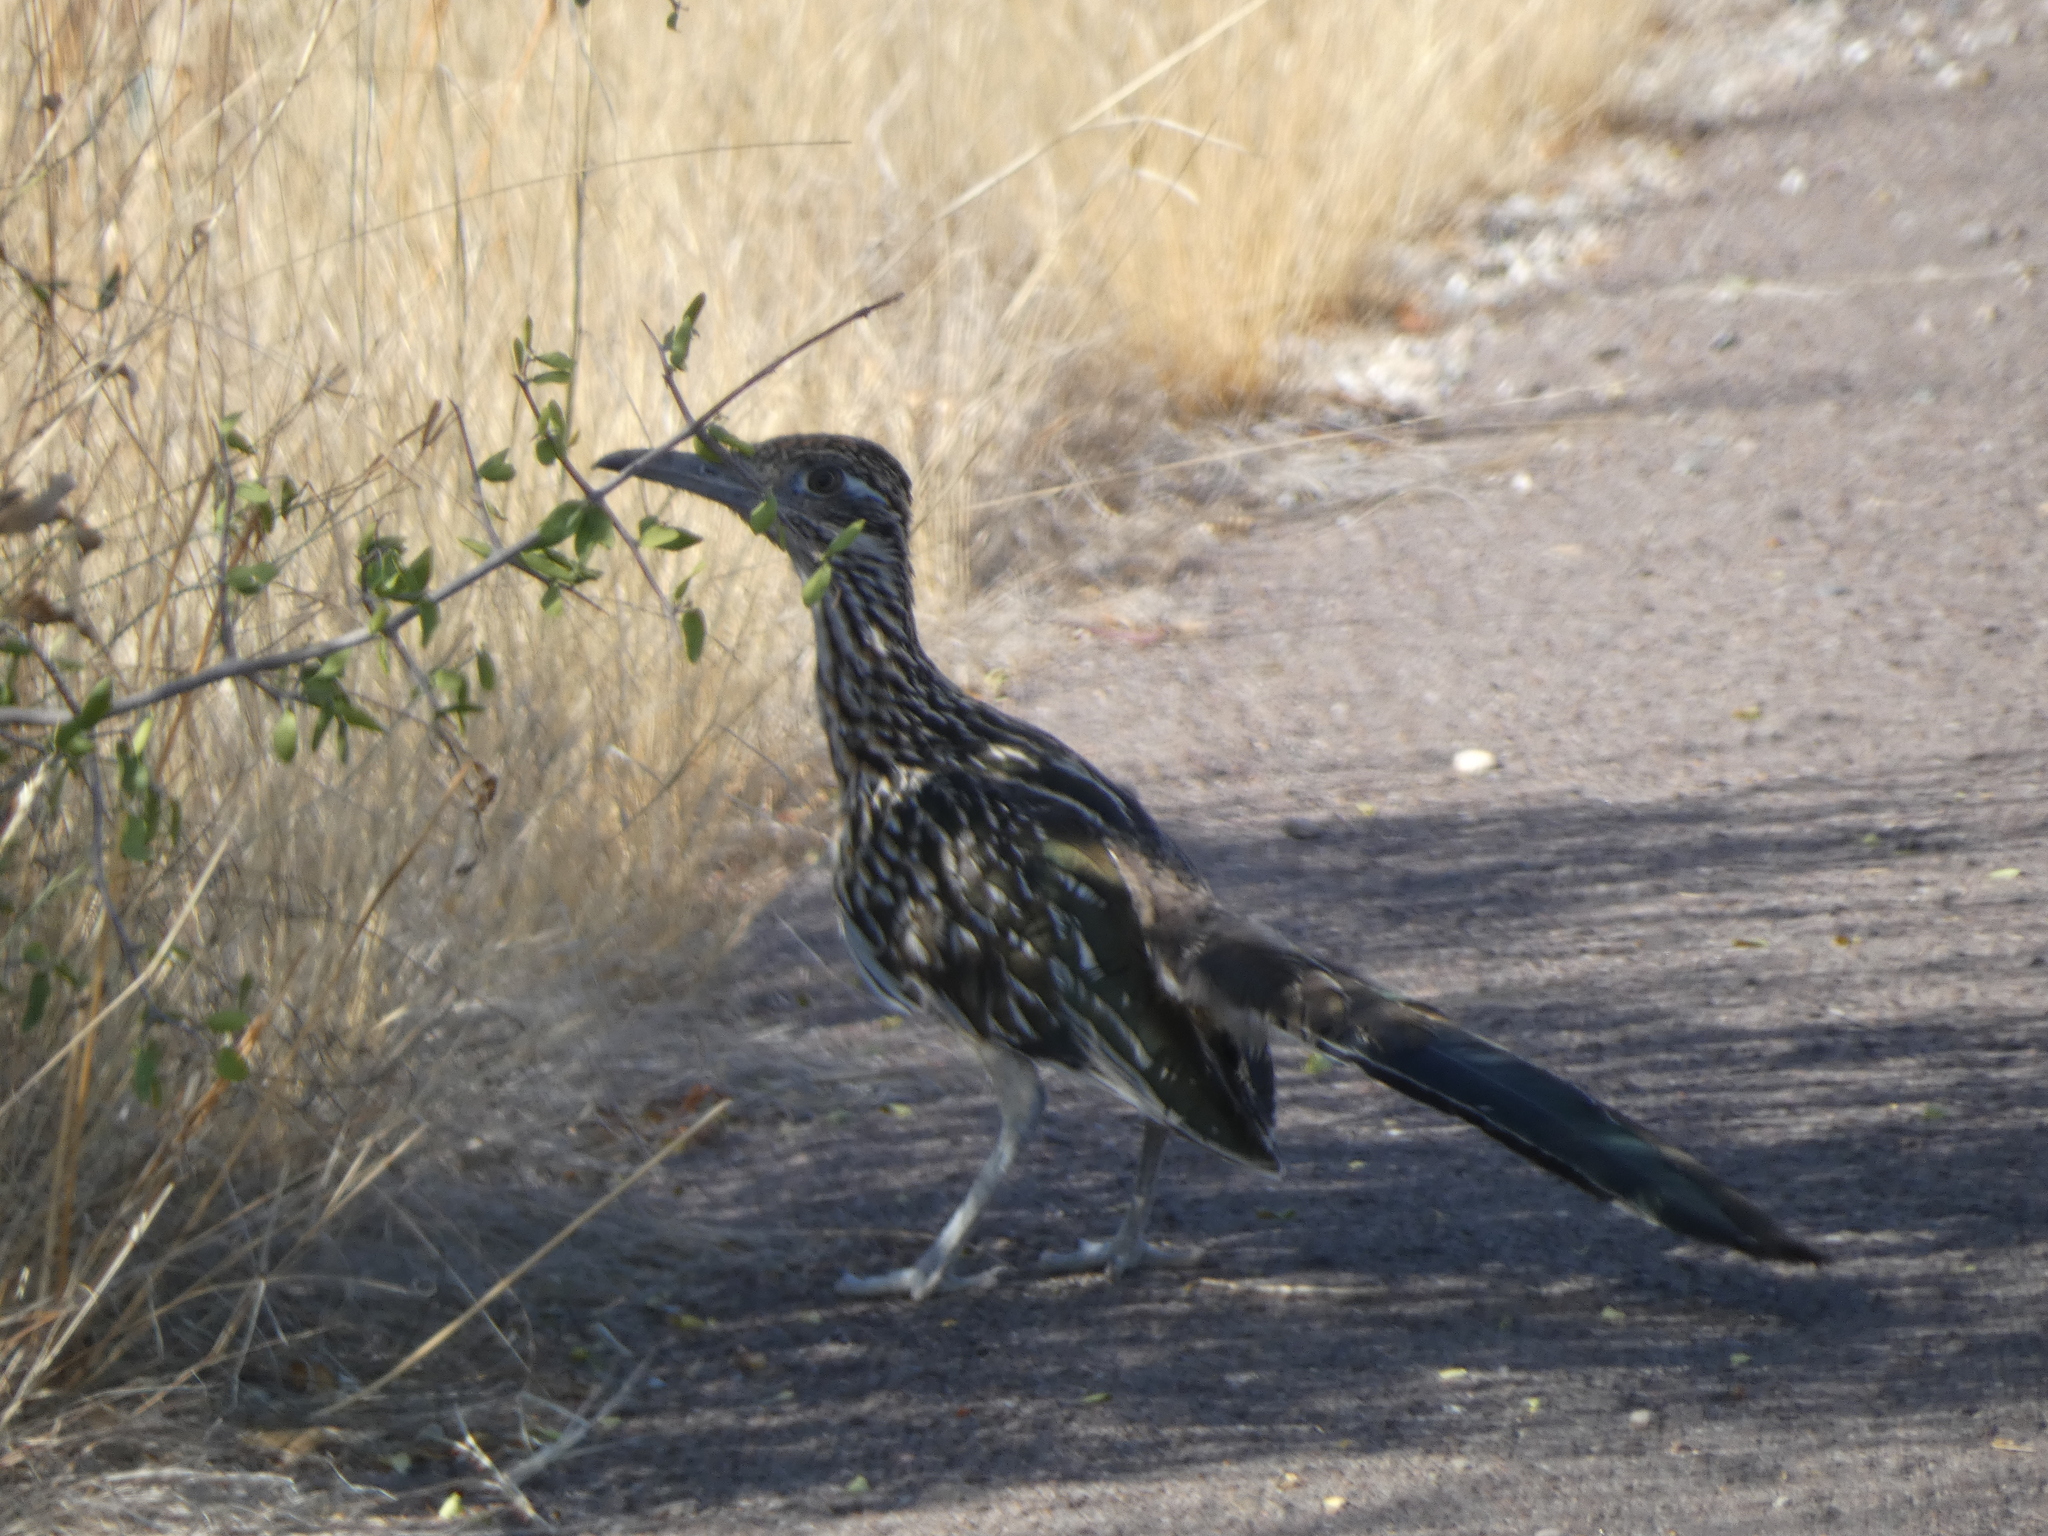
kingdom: Animalia
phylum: Chordata
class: Aves
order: Cuculiformes
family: Cuculidae
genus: Geococcyx
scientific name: Geococcyx californianus
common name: Greater roadrunner
